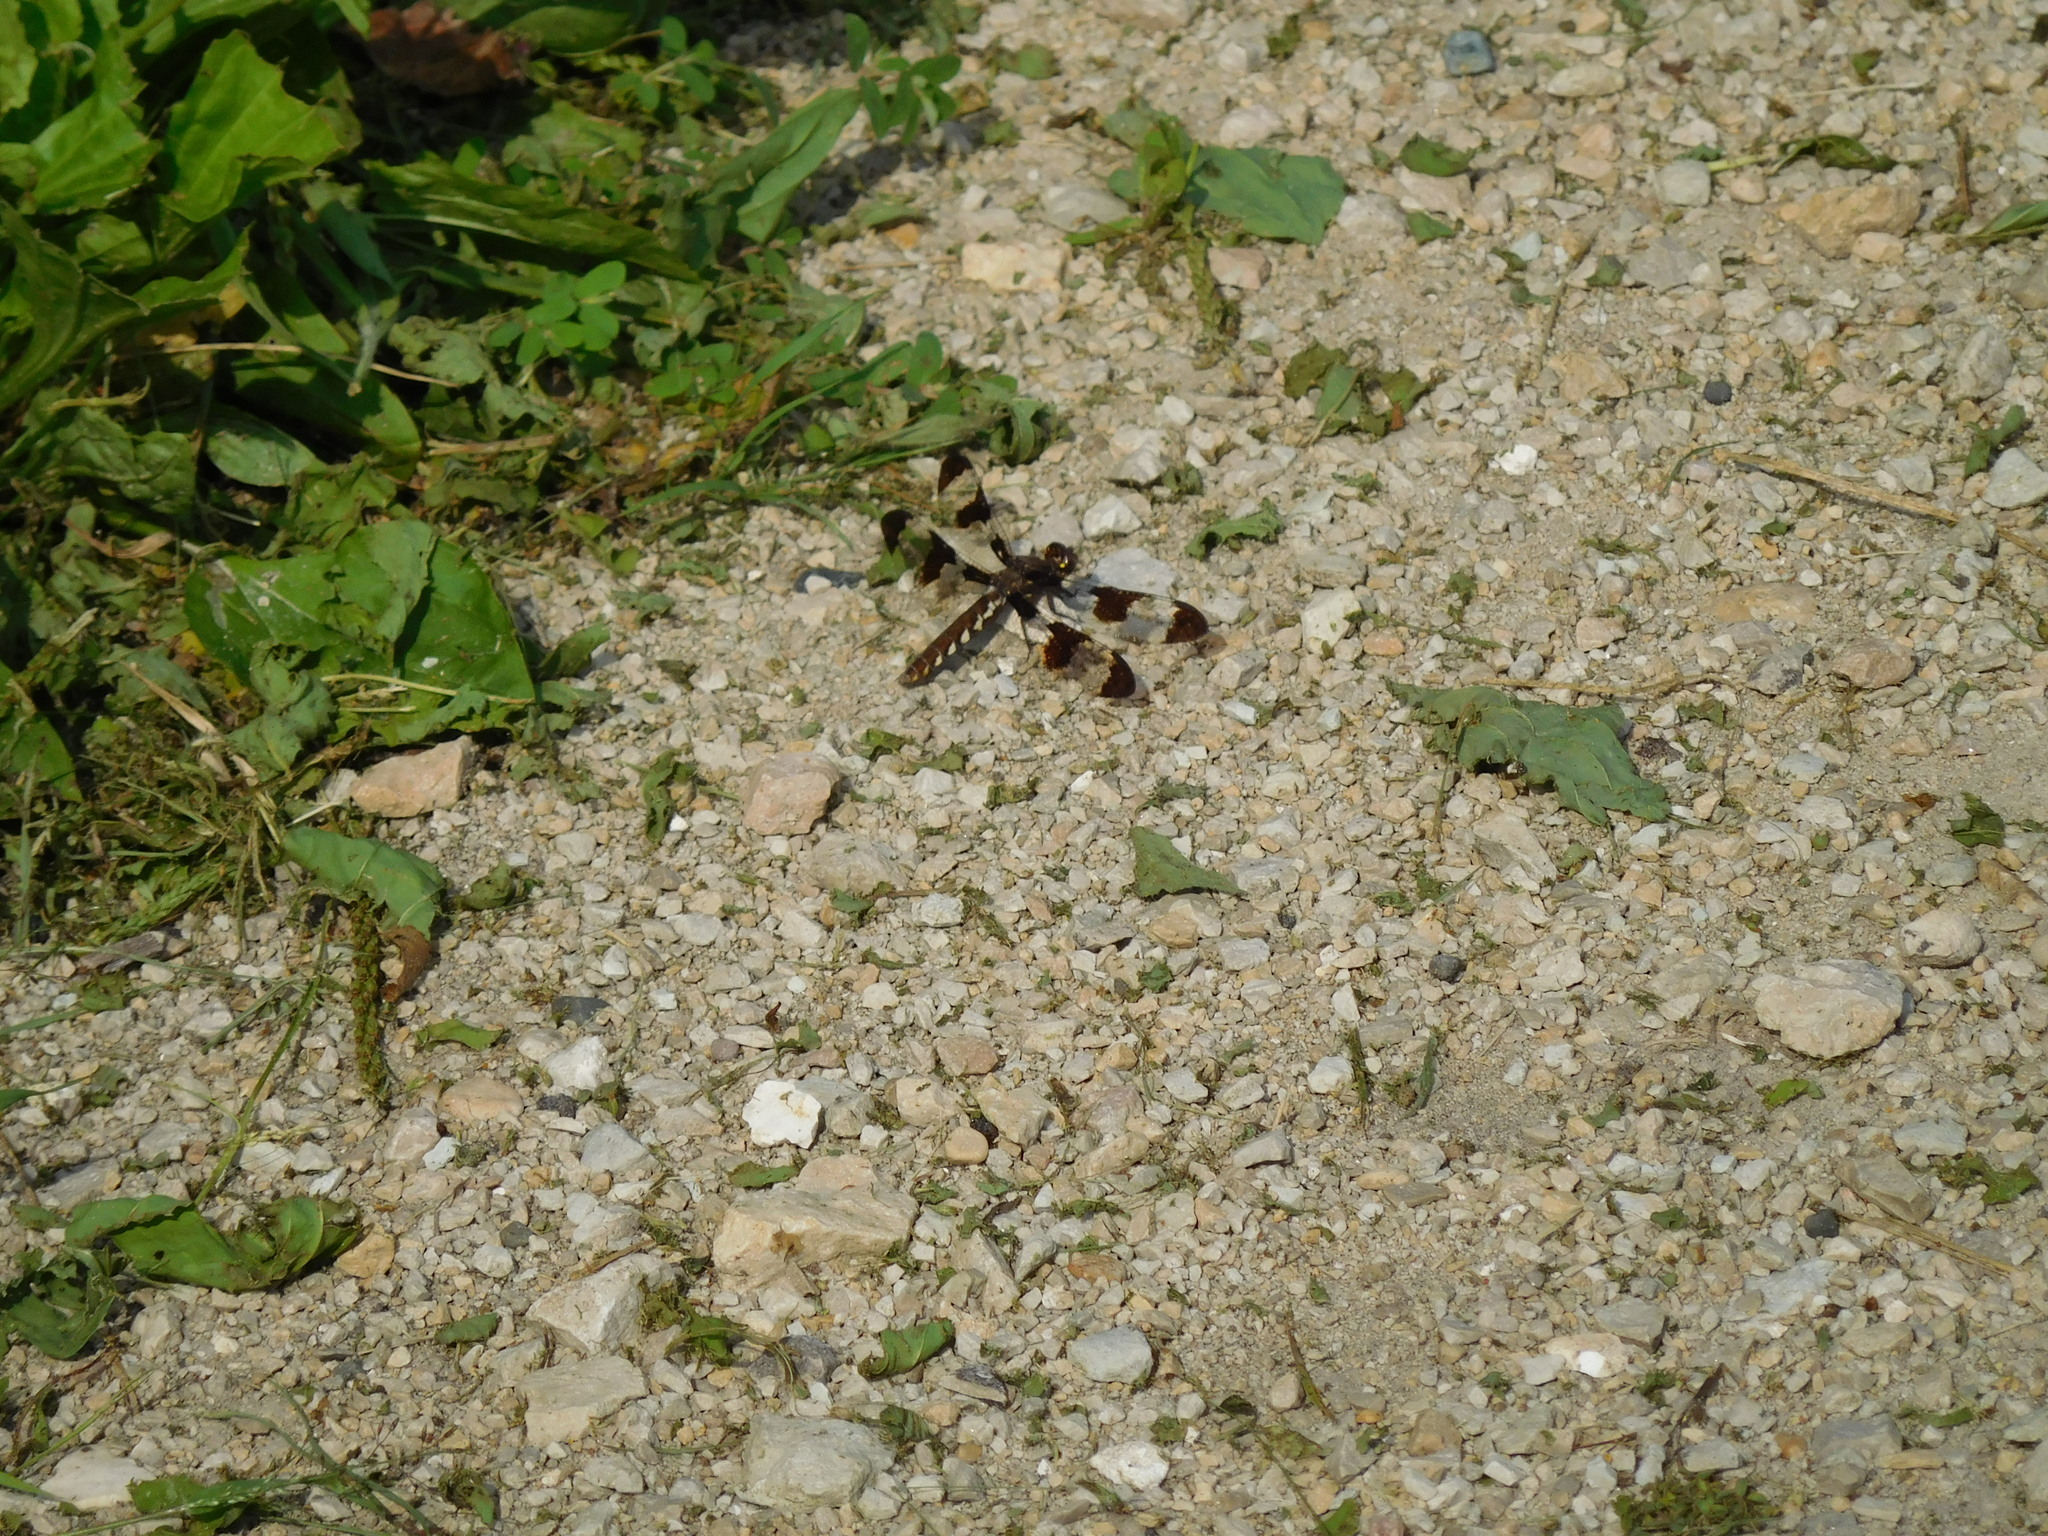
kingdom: Animalia
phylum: Arthropoda
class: Insecta
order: Odonata
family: Libellulidae
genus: Plathemis
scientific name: Plathemis lydia
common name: Common whitetail
